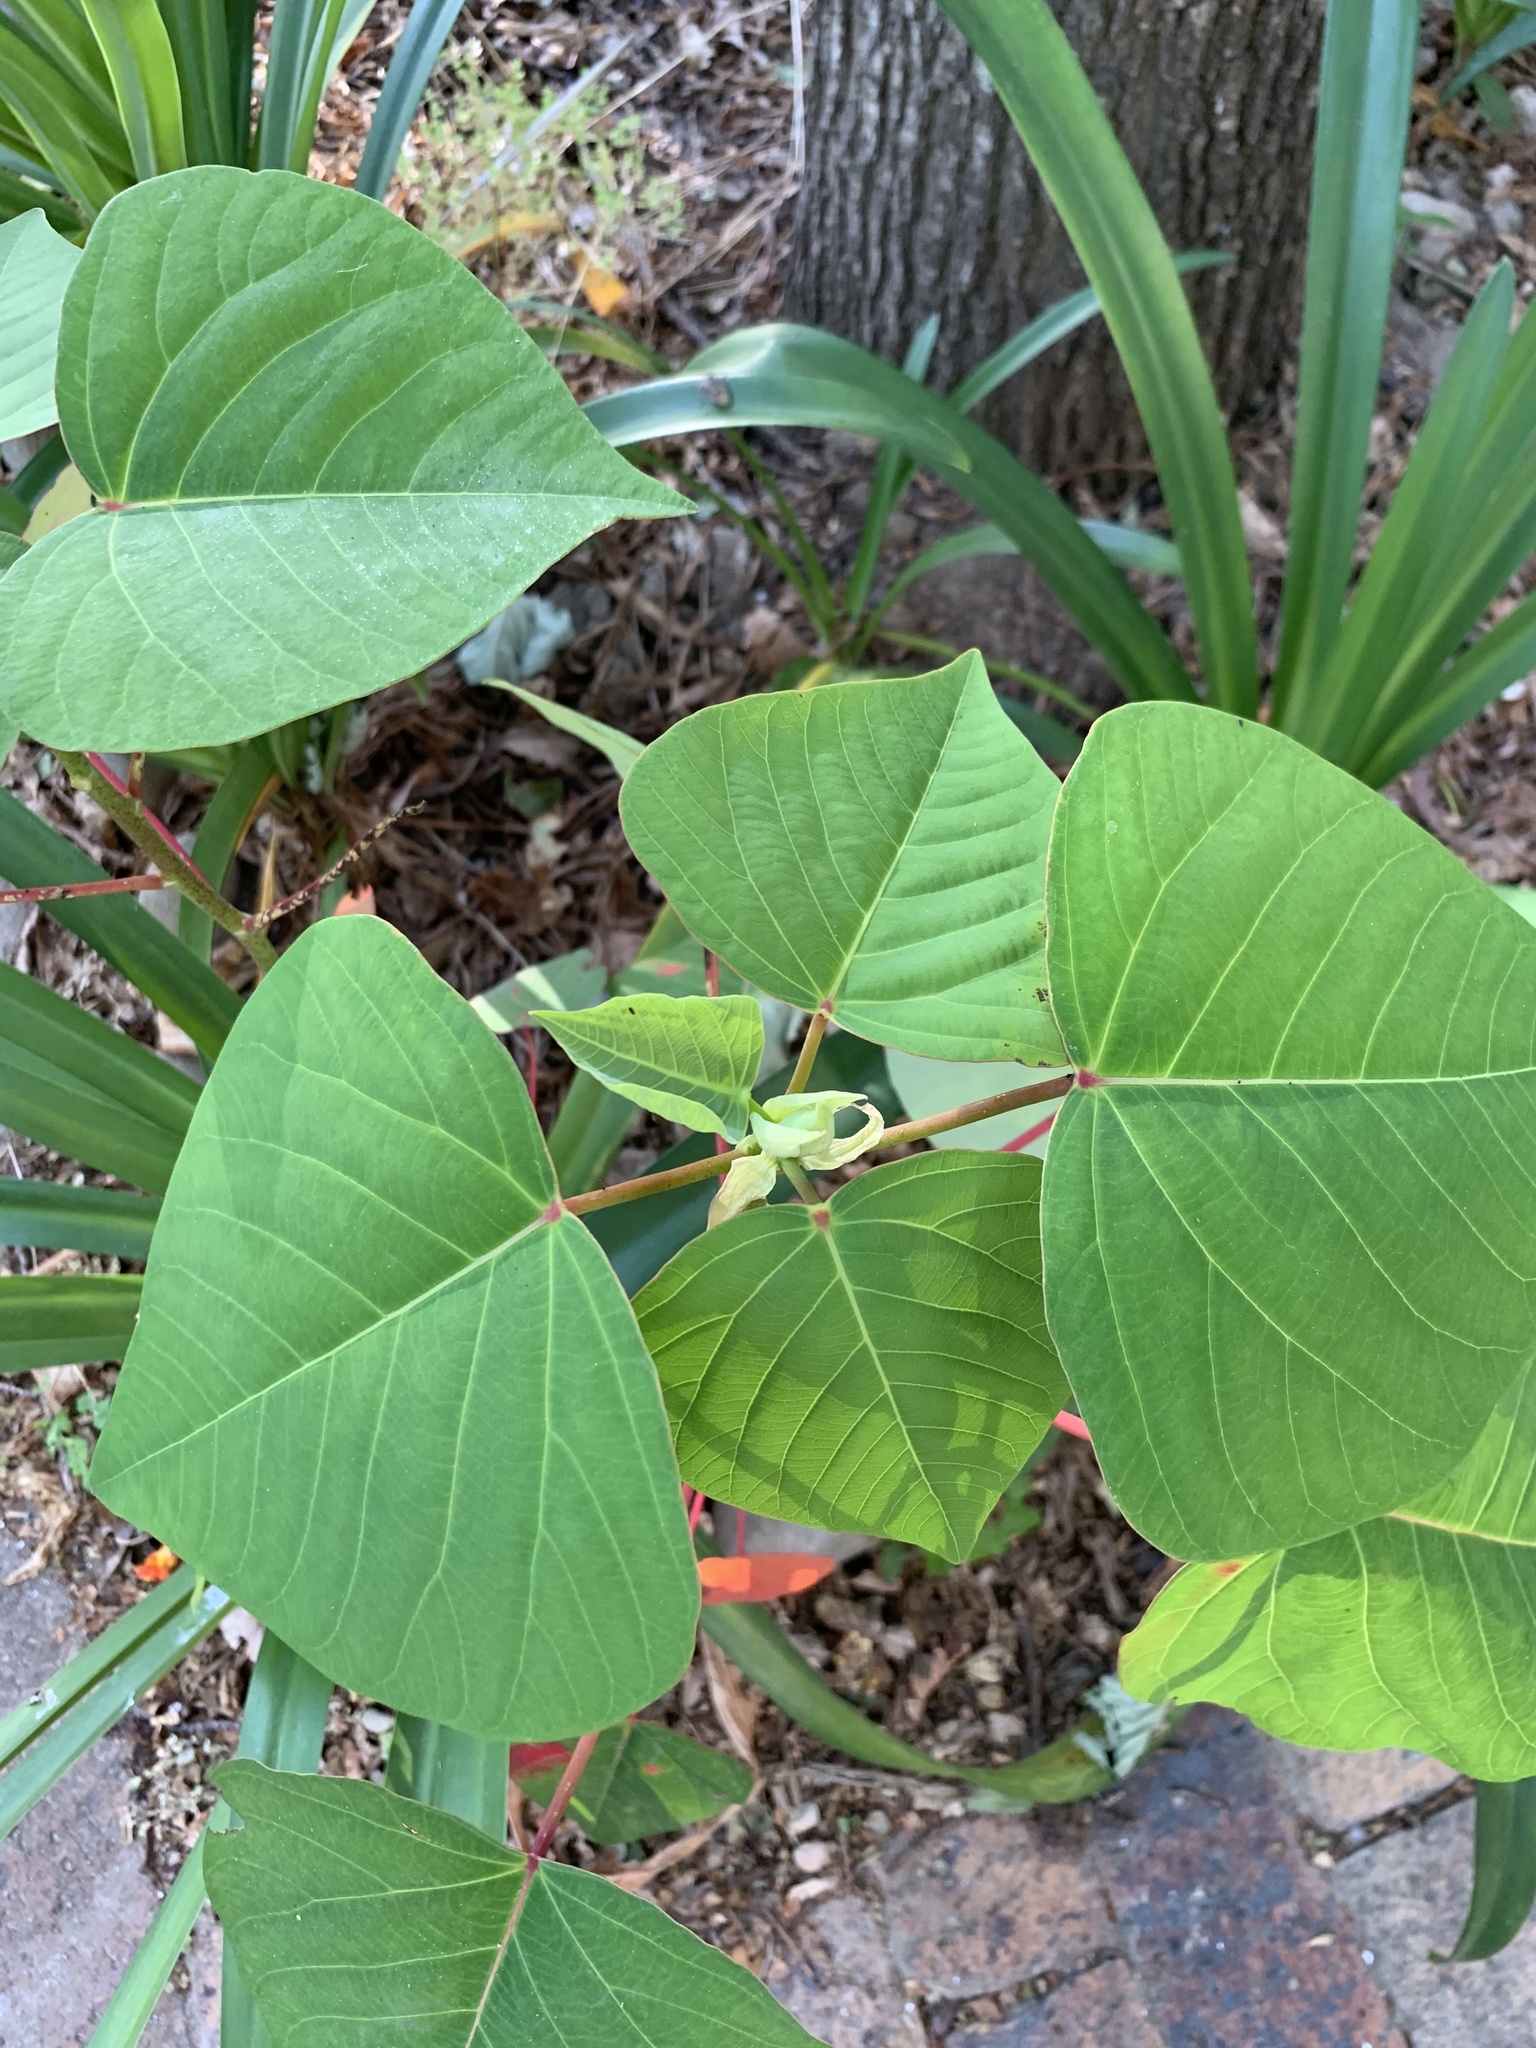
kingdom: Plantae
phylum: Tracheophyta
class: Magnoliopsida
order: Malpighiales
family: Euphorbiaceae
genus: Homalanthus
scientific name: Homalanthus populifolius
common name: Queensland poplar
